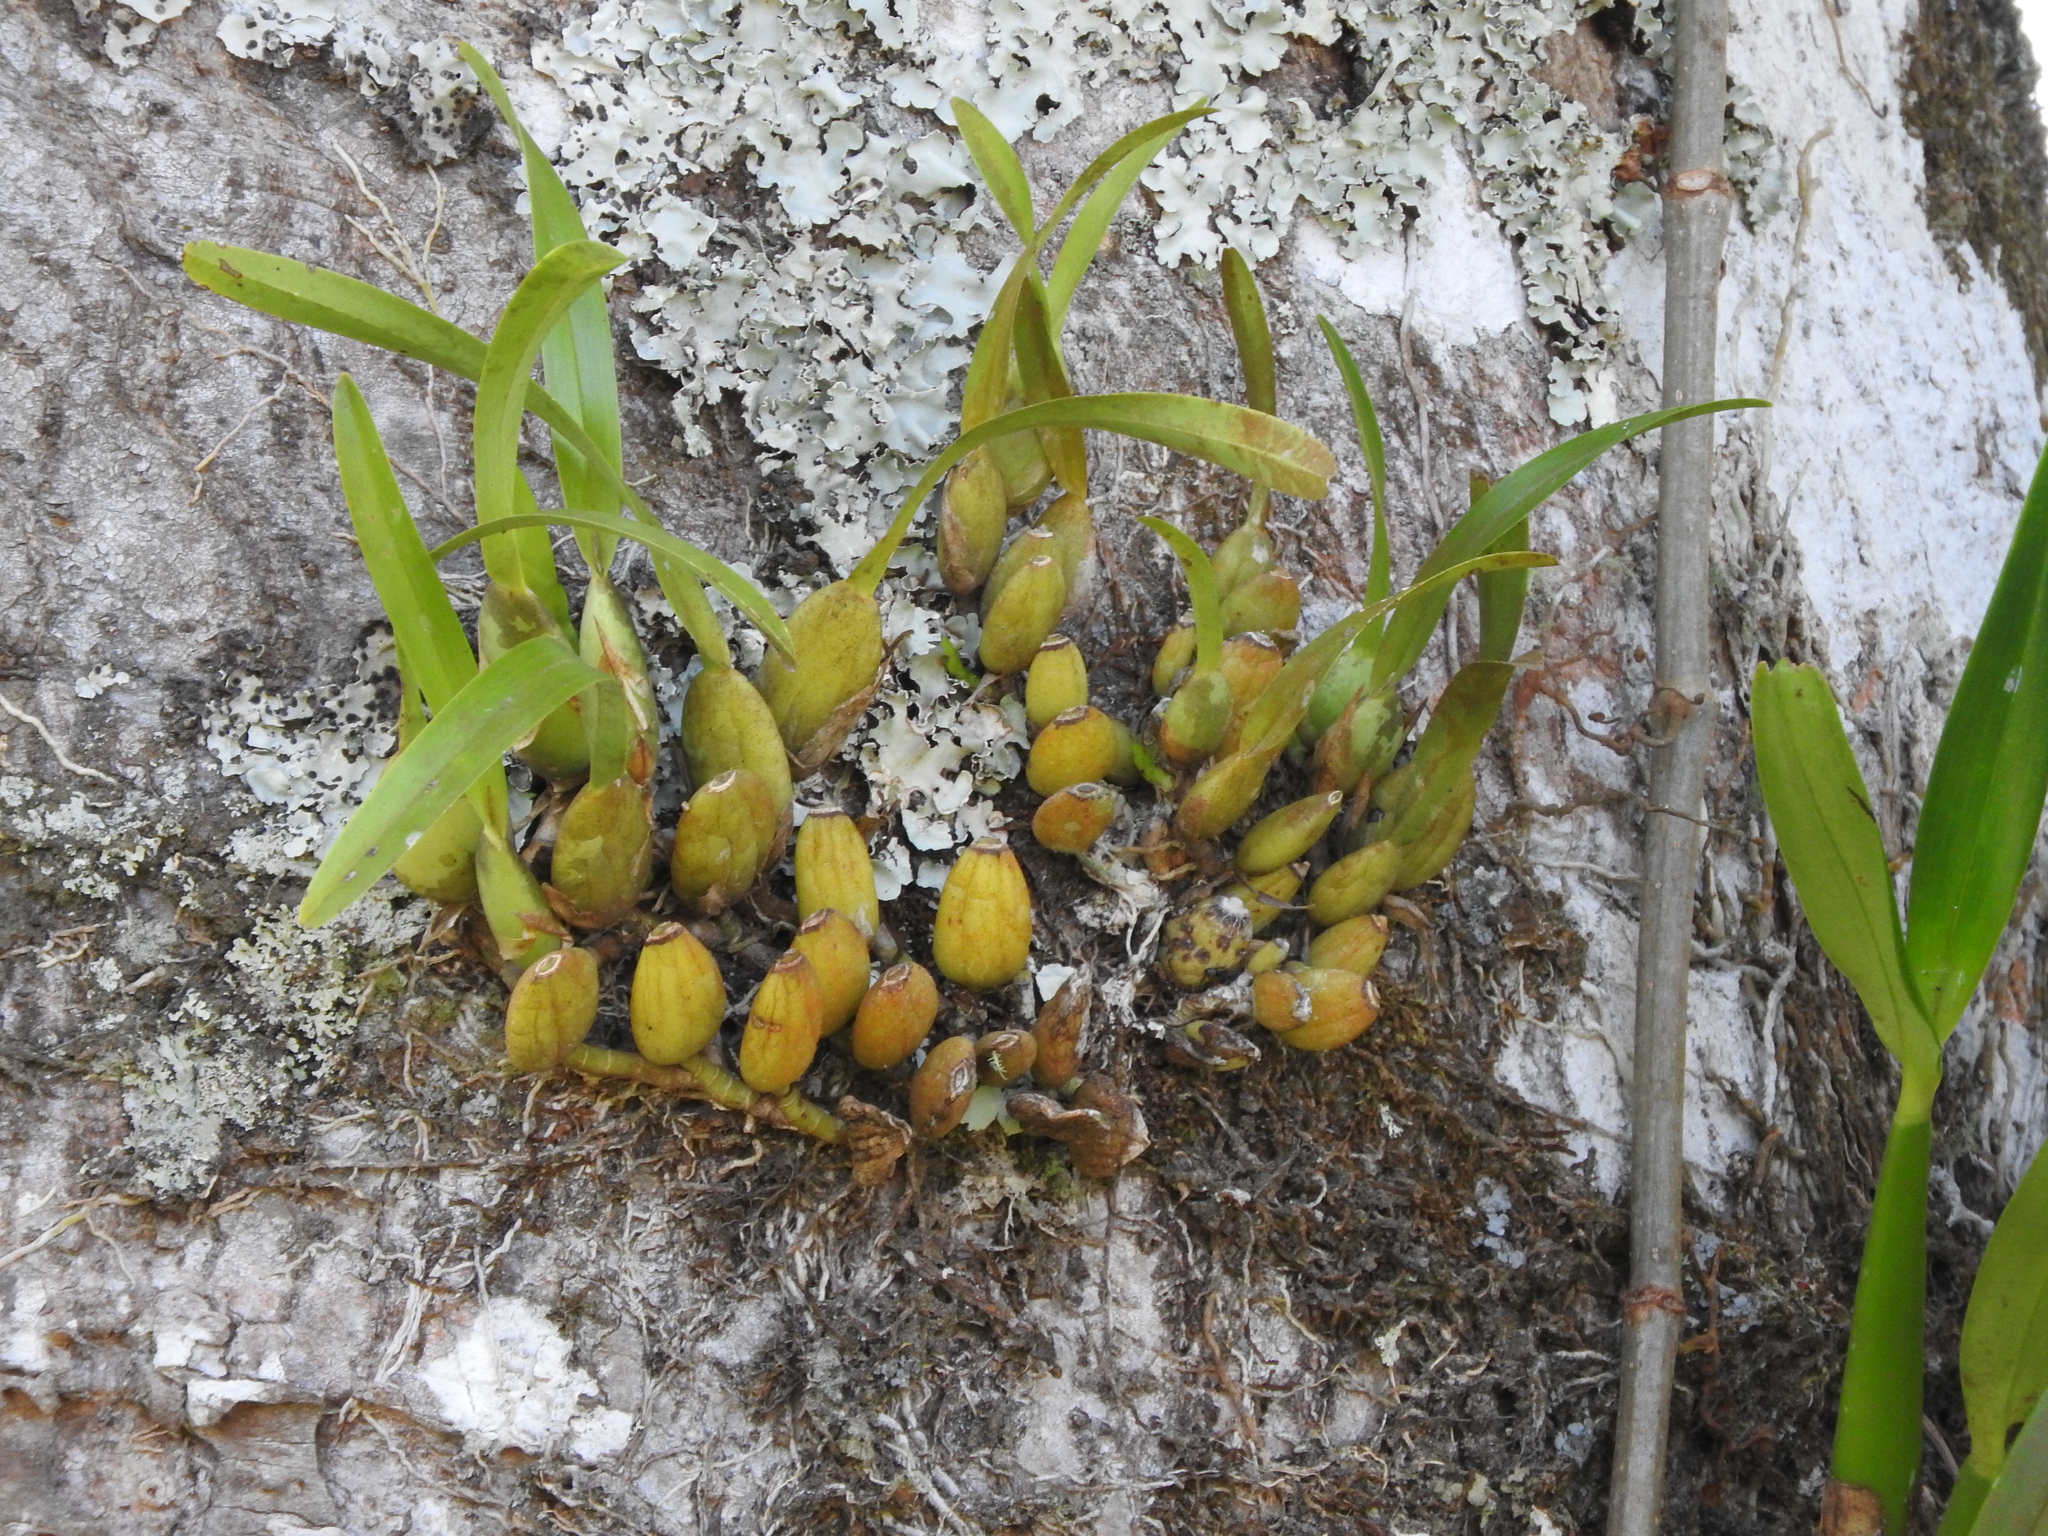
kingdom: Plantae
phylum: Tracheophyta
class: Liliopsida
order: Asparagales
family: Orchidaceae
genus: Nidema
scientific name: Nidema boothii
